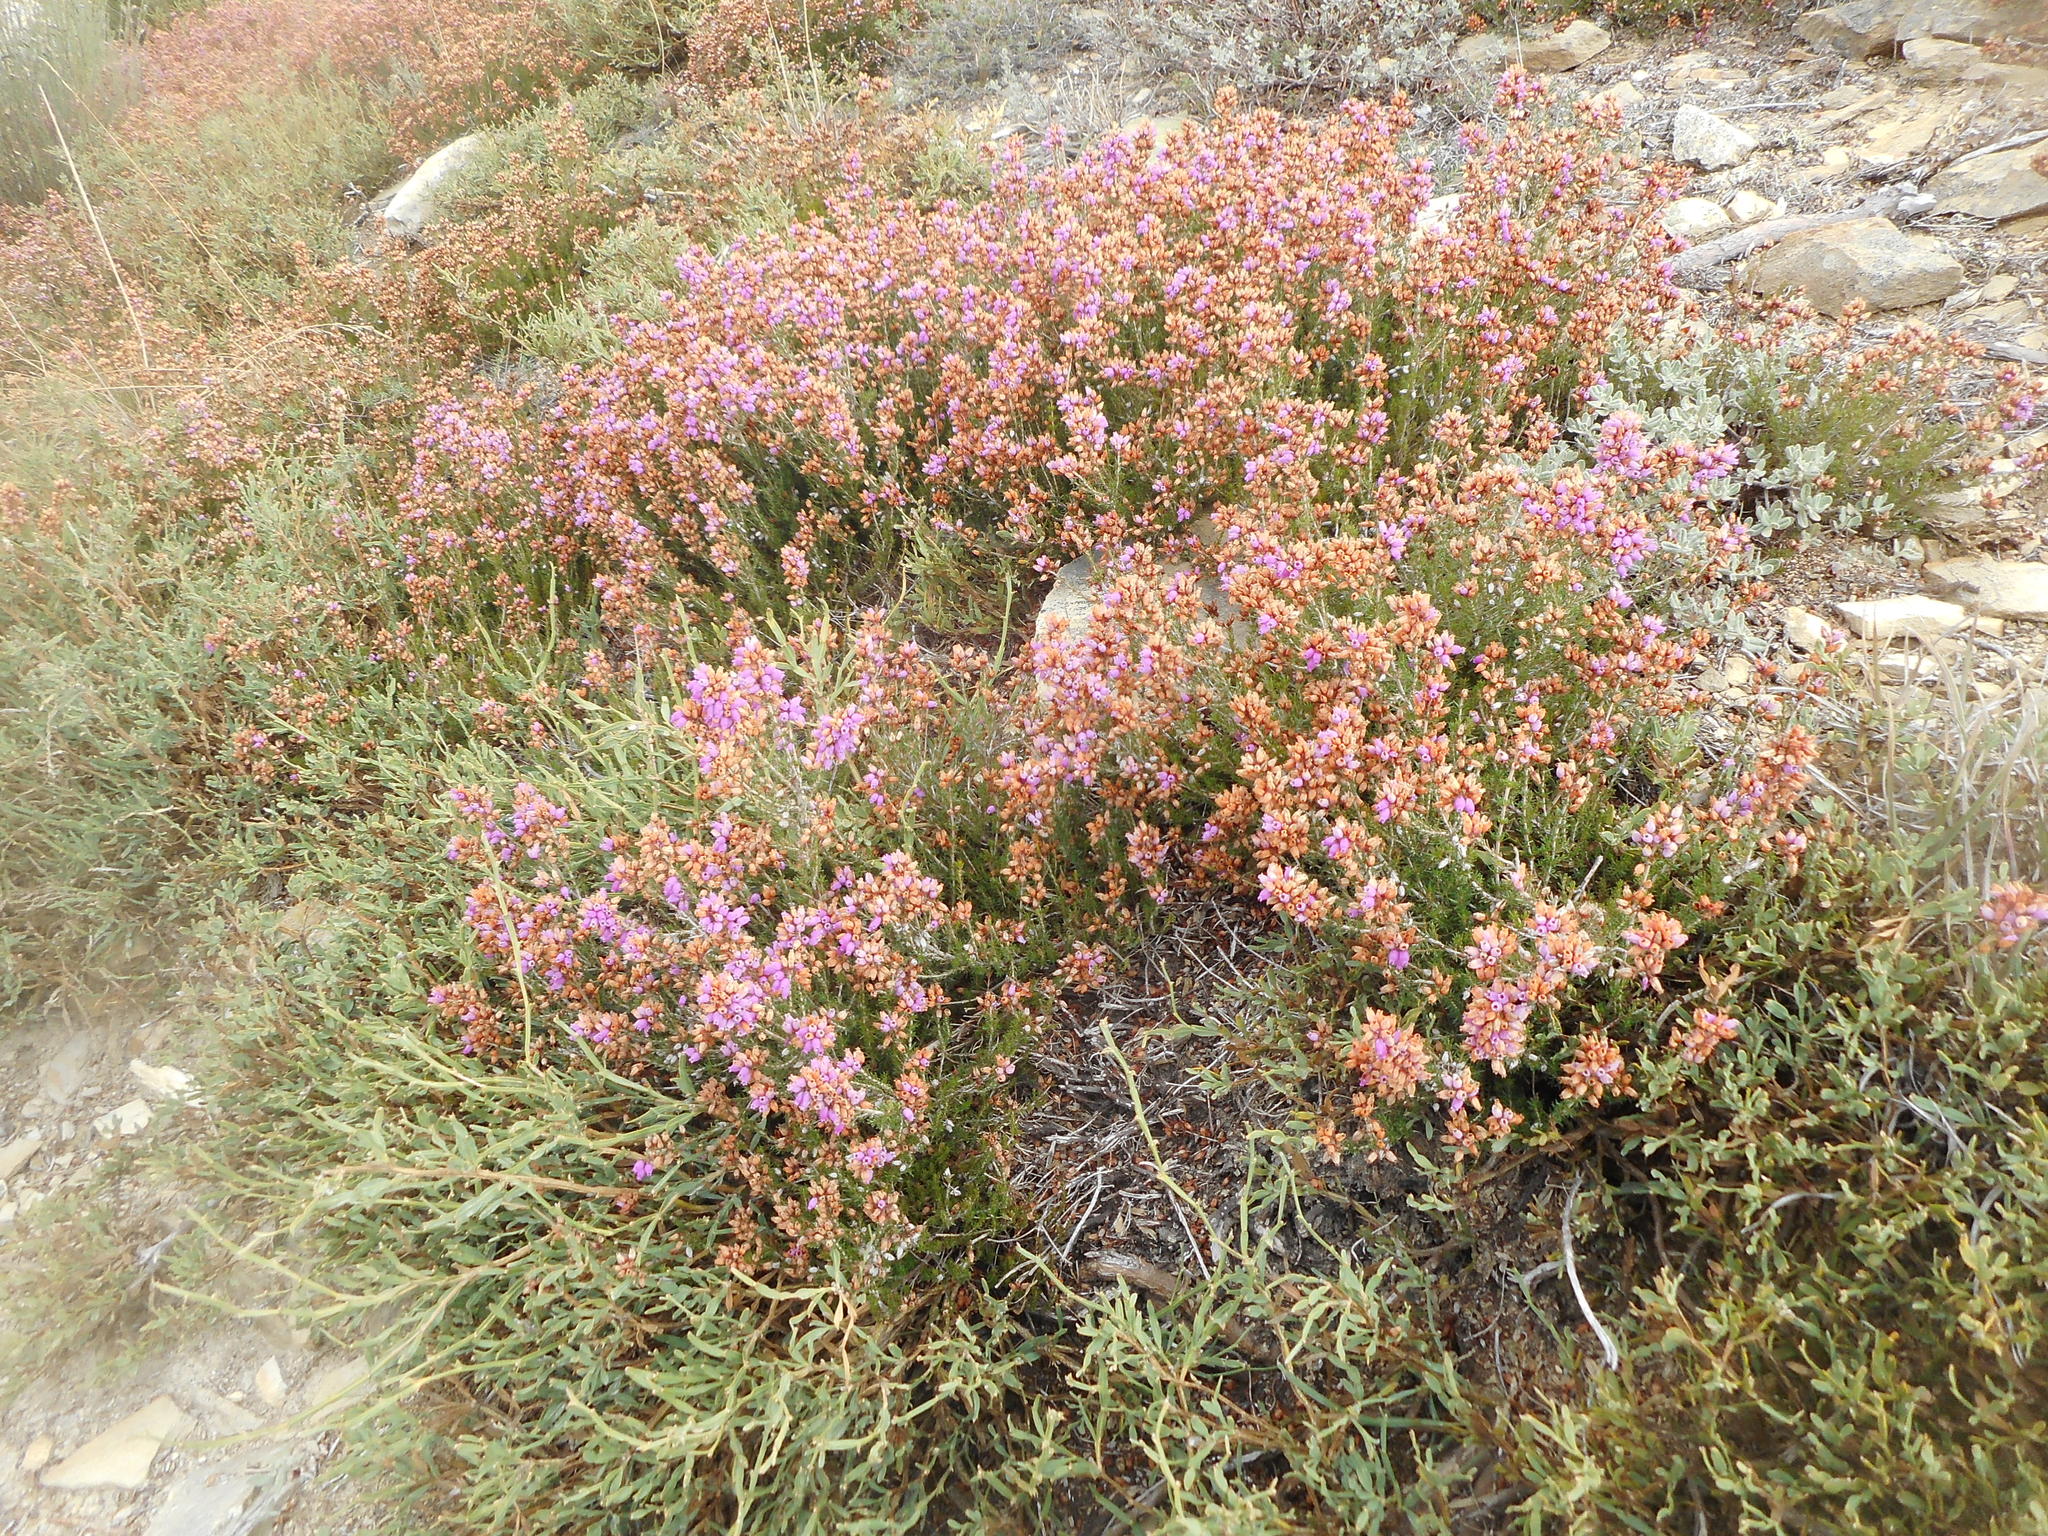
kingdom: Plantae
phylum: Tracheophyta
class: Magnoliopsida
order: Ericales
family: Ericaceae
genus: Erica
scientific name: Erica cinerea
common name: Bell heather
